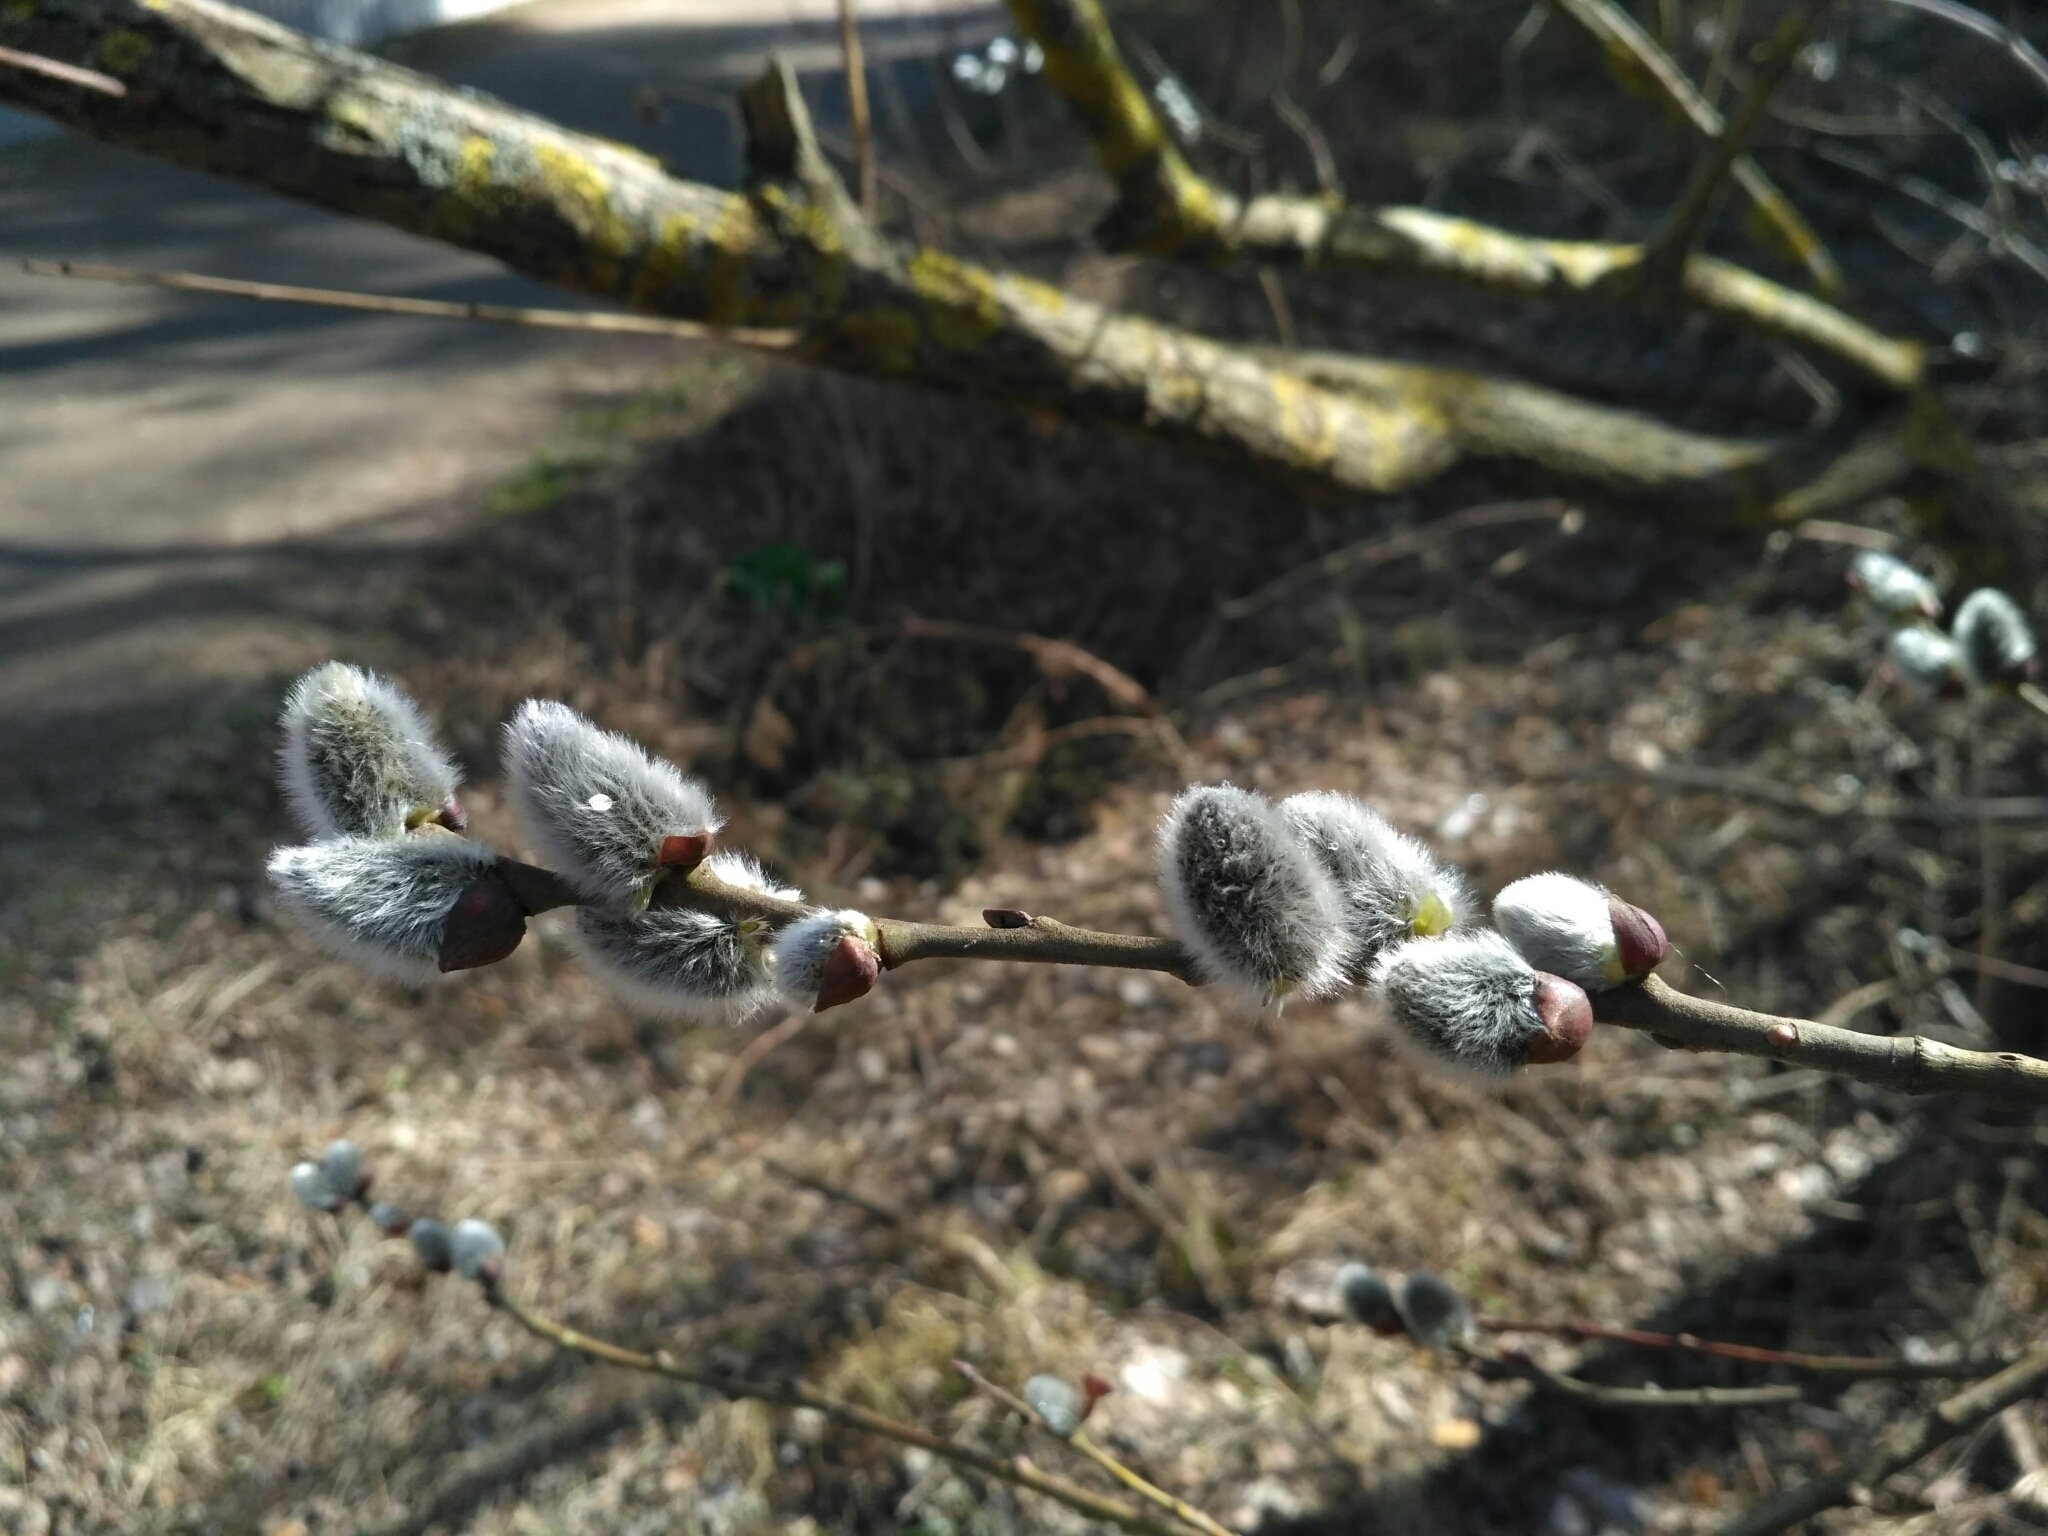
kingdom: Plantae
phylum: Tracheophyta
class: Magnoliopsida
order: Malpighiales
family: Salicaceae
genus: Salix
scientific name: Salix caprea
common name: Goat willow
